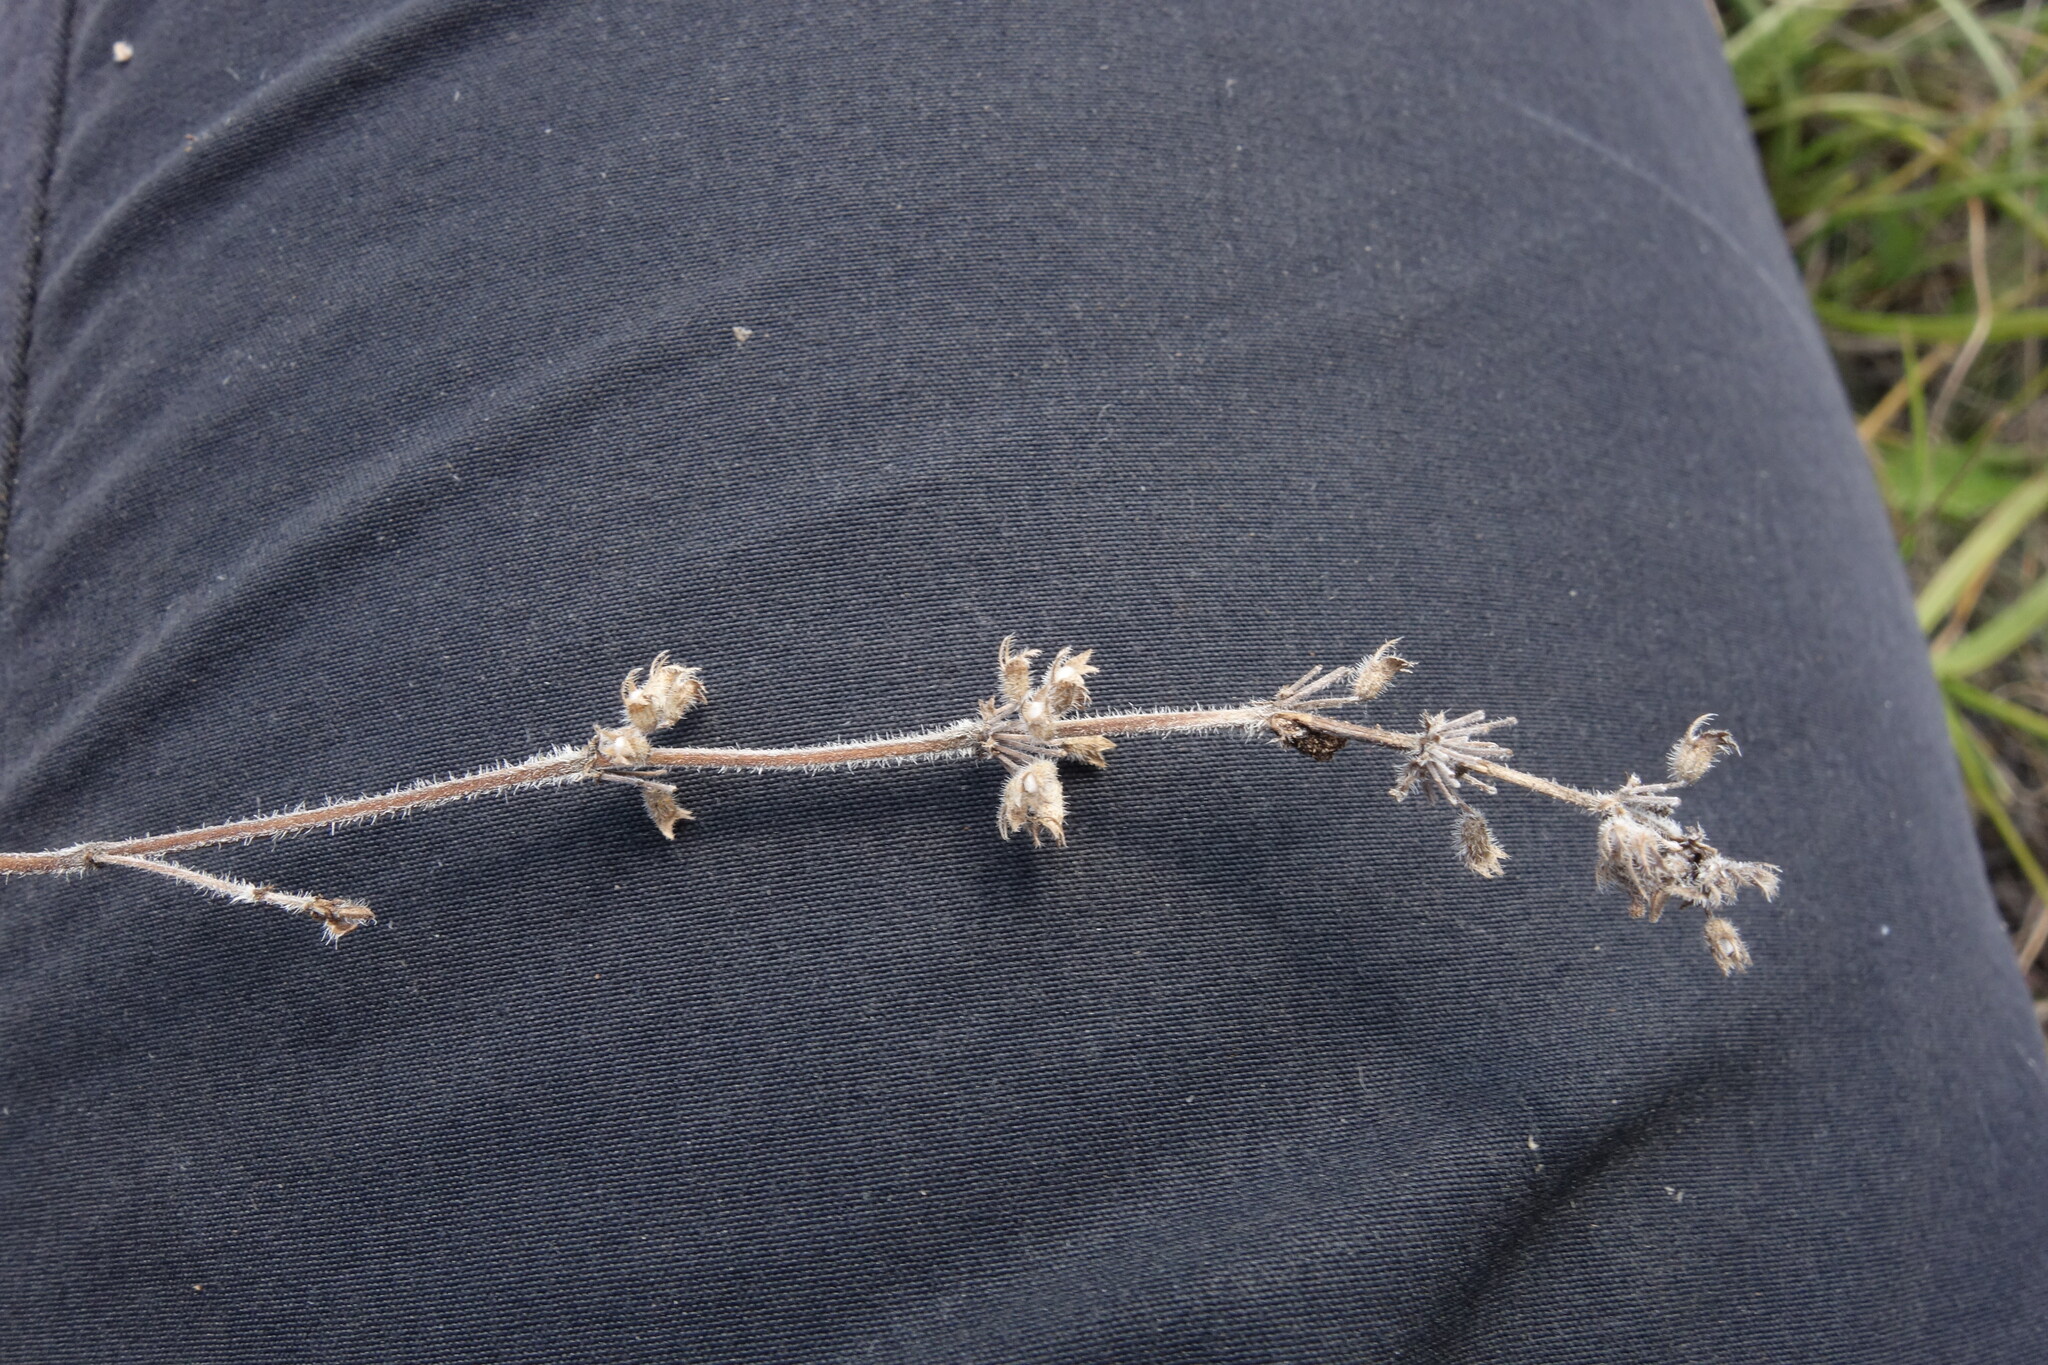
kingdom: Plantae
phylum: Tracheophyta
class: Magnoliopsida
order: Lamiales
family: Lamiaceae
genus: Thymus
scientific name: Thymus pannonicus
